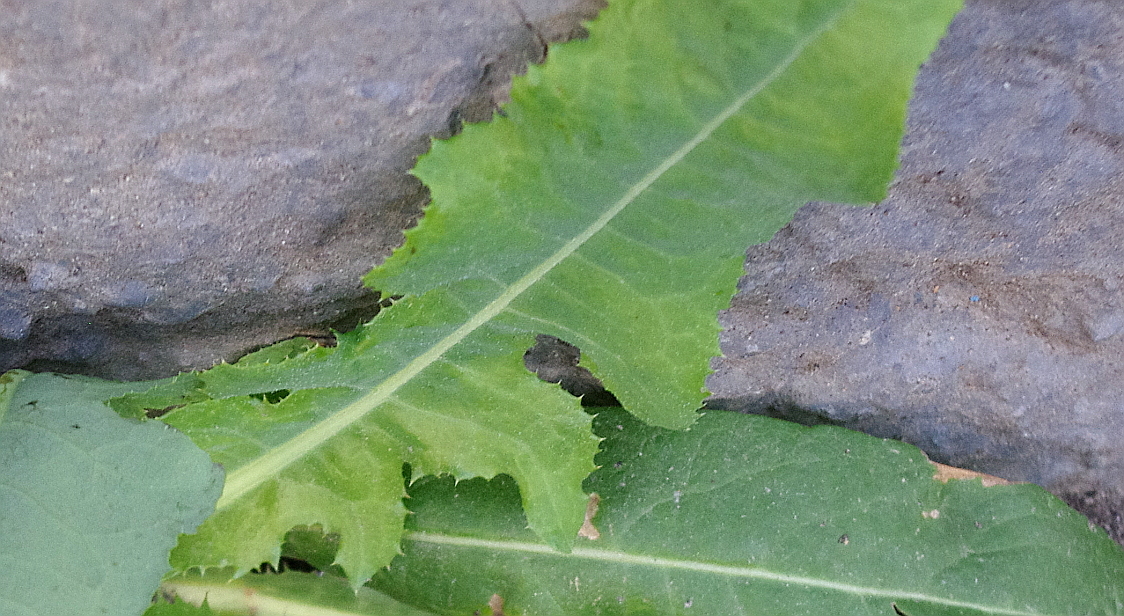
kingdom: Plantae
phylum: Tracheophyta
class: Magnoliopsida
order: Asterales
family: Asteraceae
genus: Sonchus
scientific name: Sonchus arvensis
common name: Perennial sow-thistle
